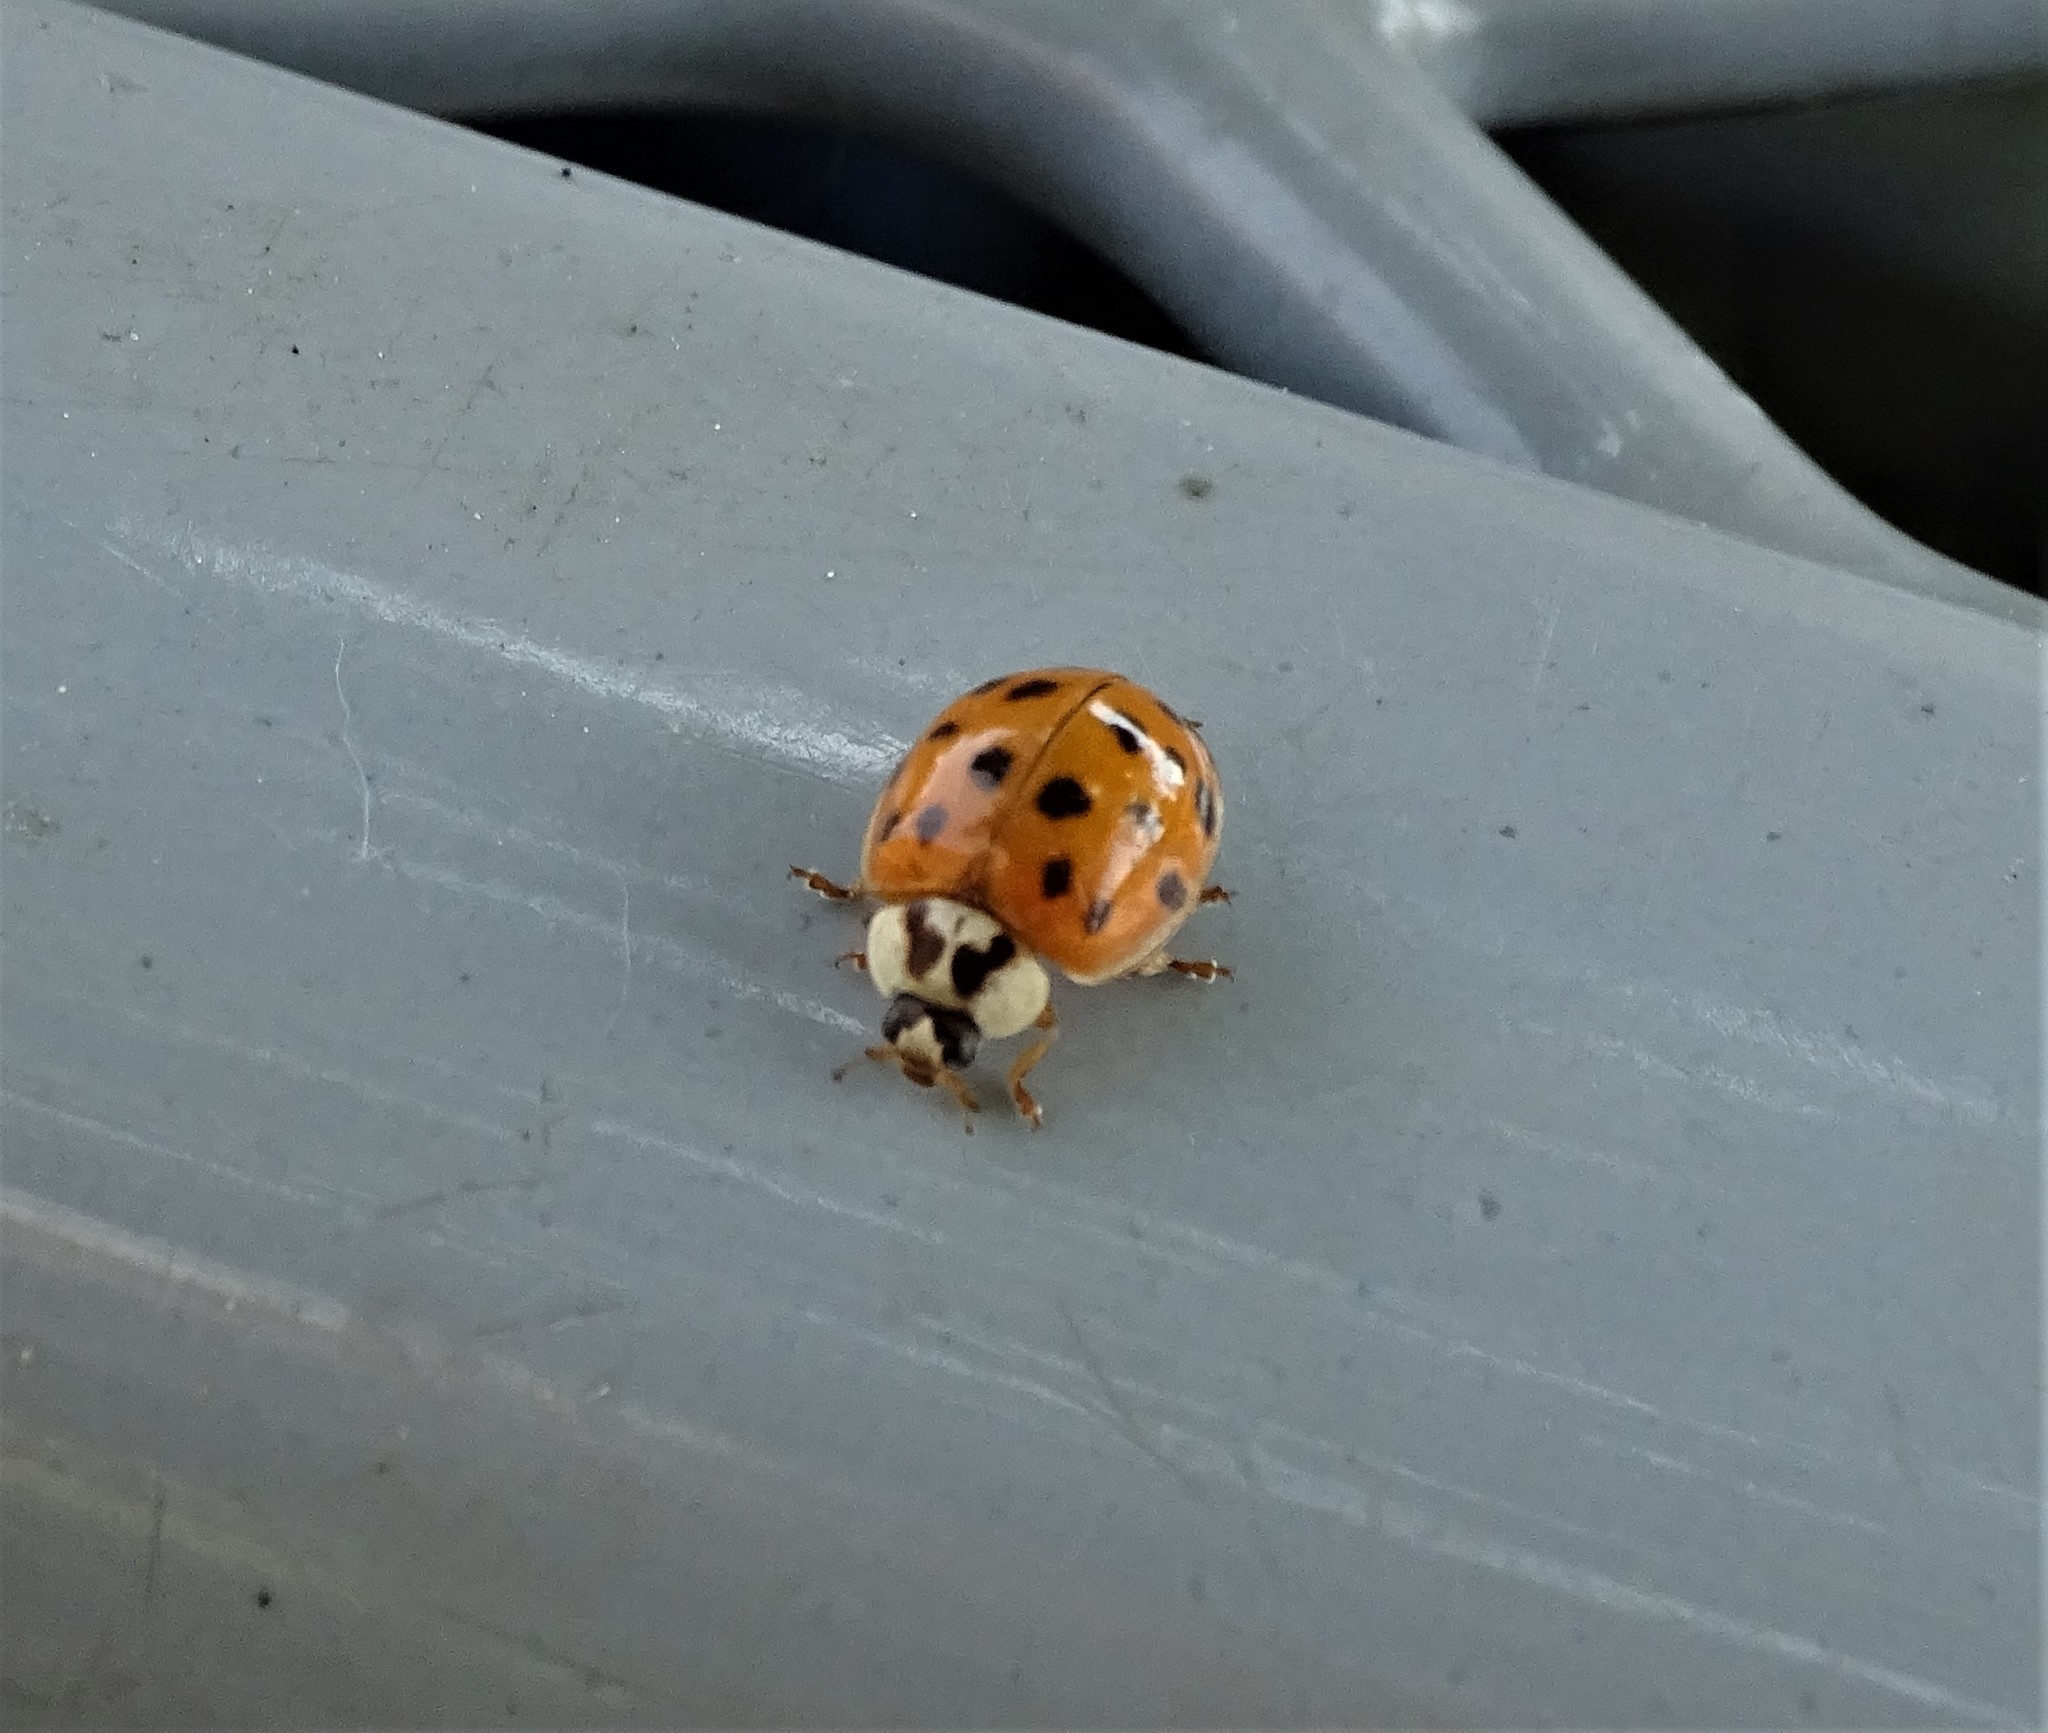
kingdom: Animalia
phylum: Arthropoda
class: Insecta
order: Coleoptera
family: Coccinellidae
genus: Harmonia
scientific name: Harmonia axyridis
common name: Harlequin ladybird
